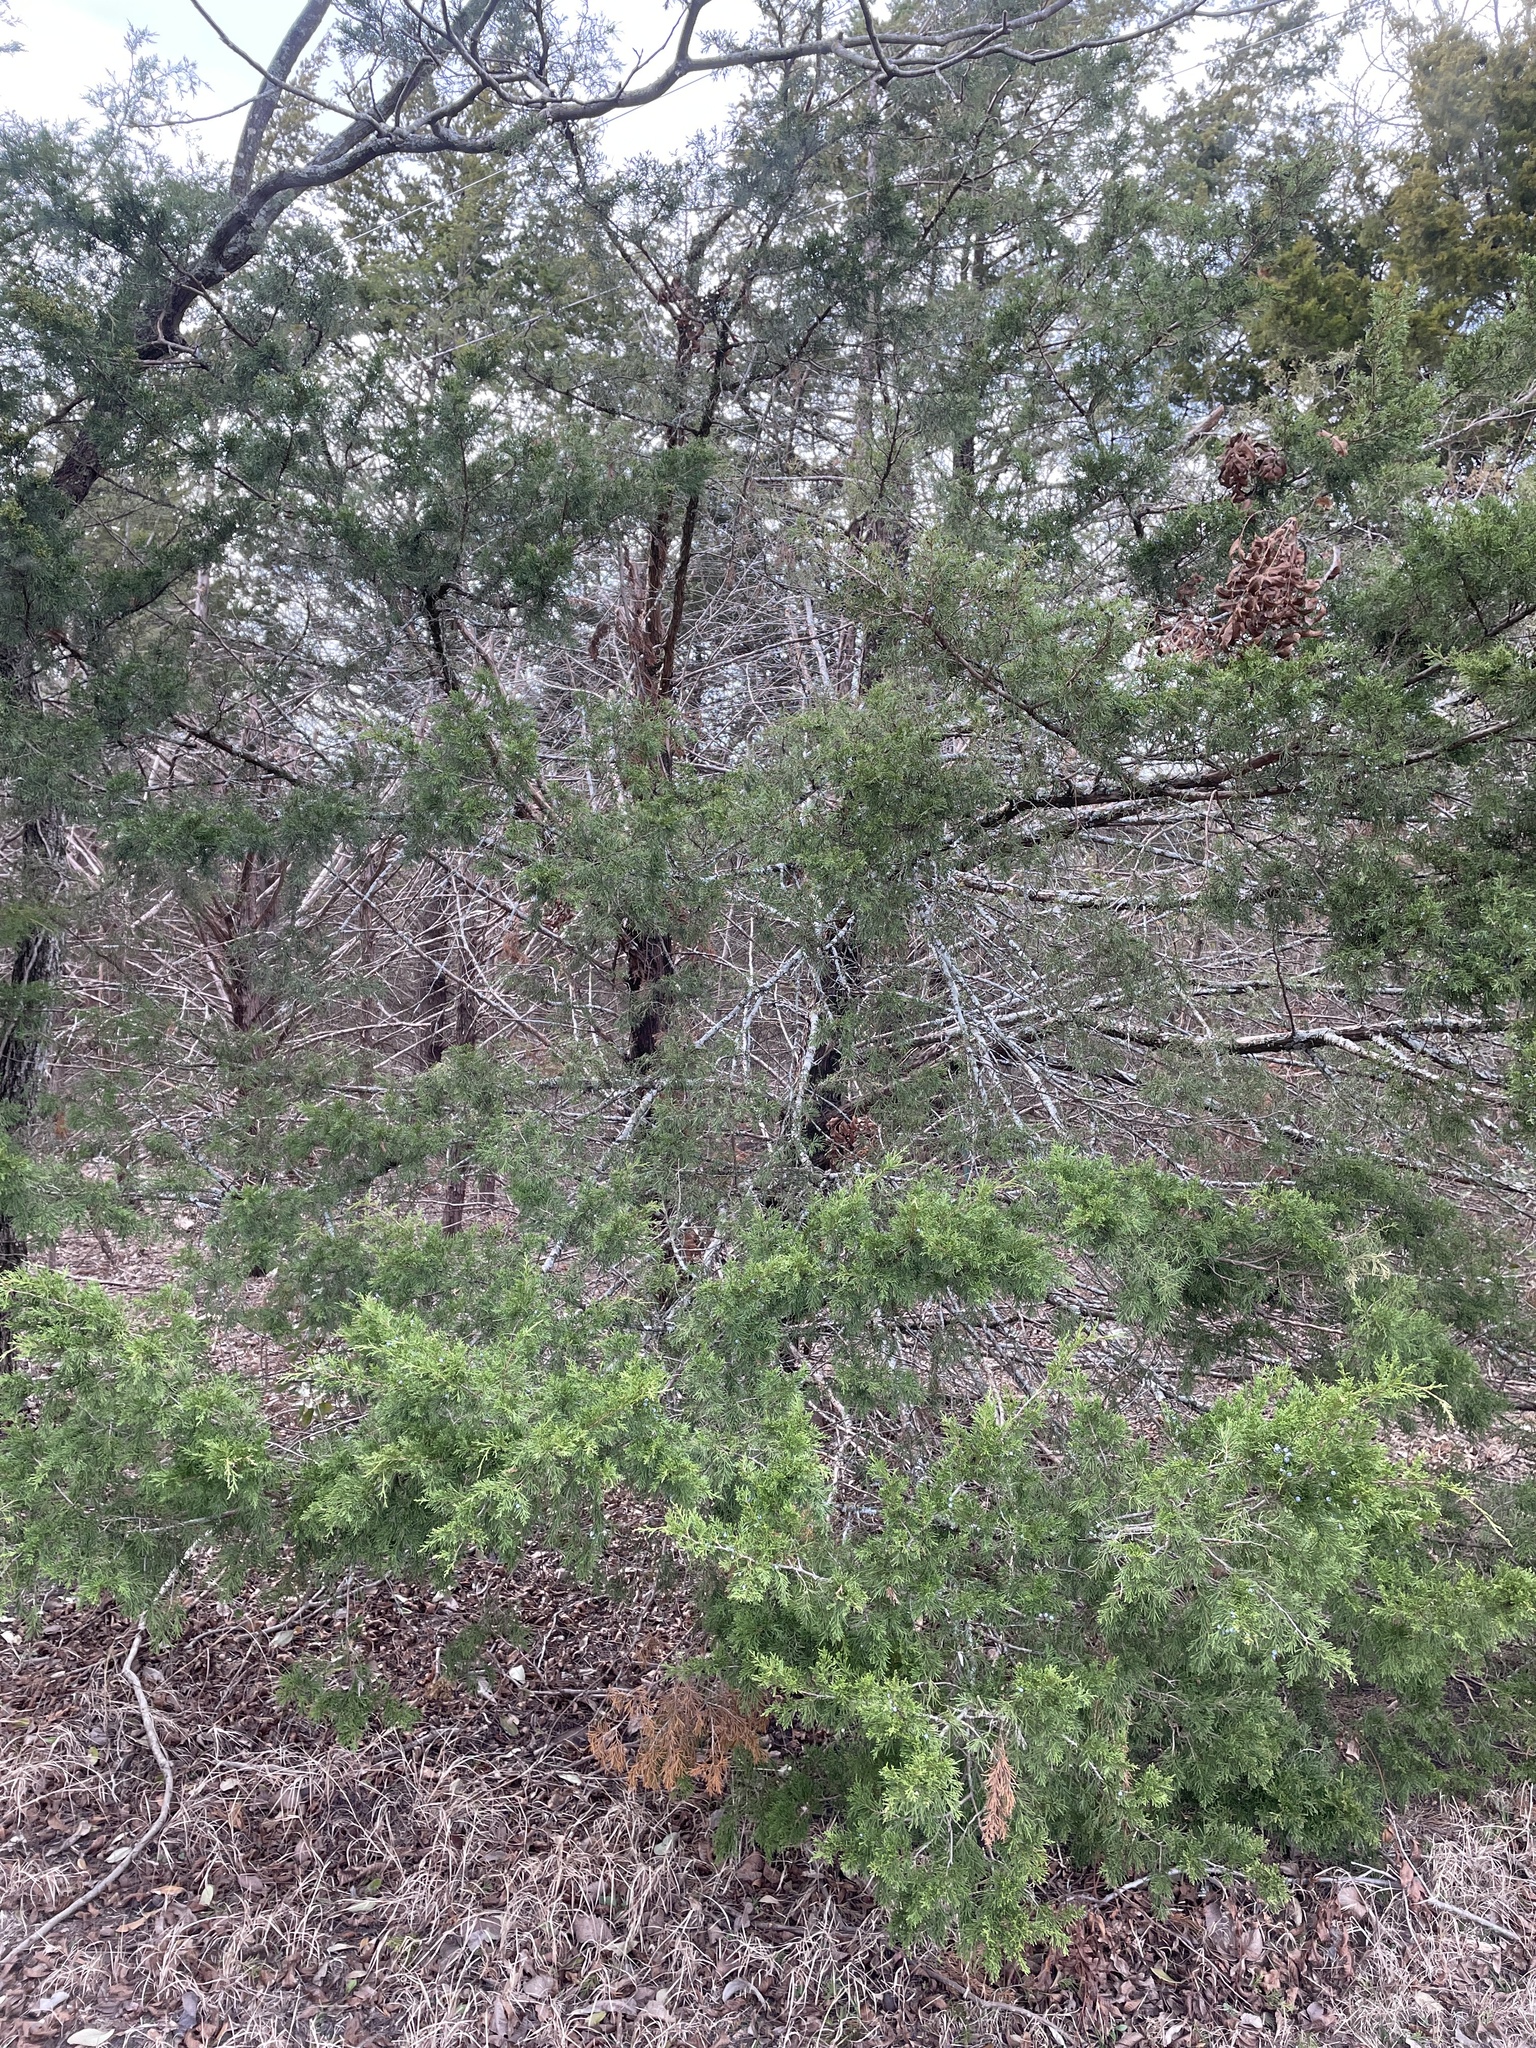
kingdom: Plantae
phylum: Tracheophyta
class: Pinopsida
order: Pinales
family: Cupressaceae
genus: Juniperus
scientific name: Juniperus virginiana
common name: Red juniper
